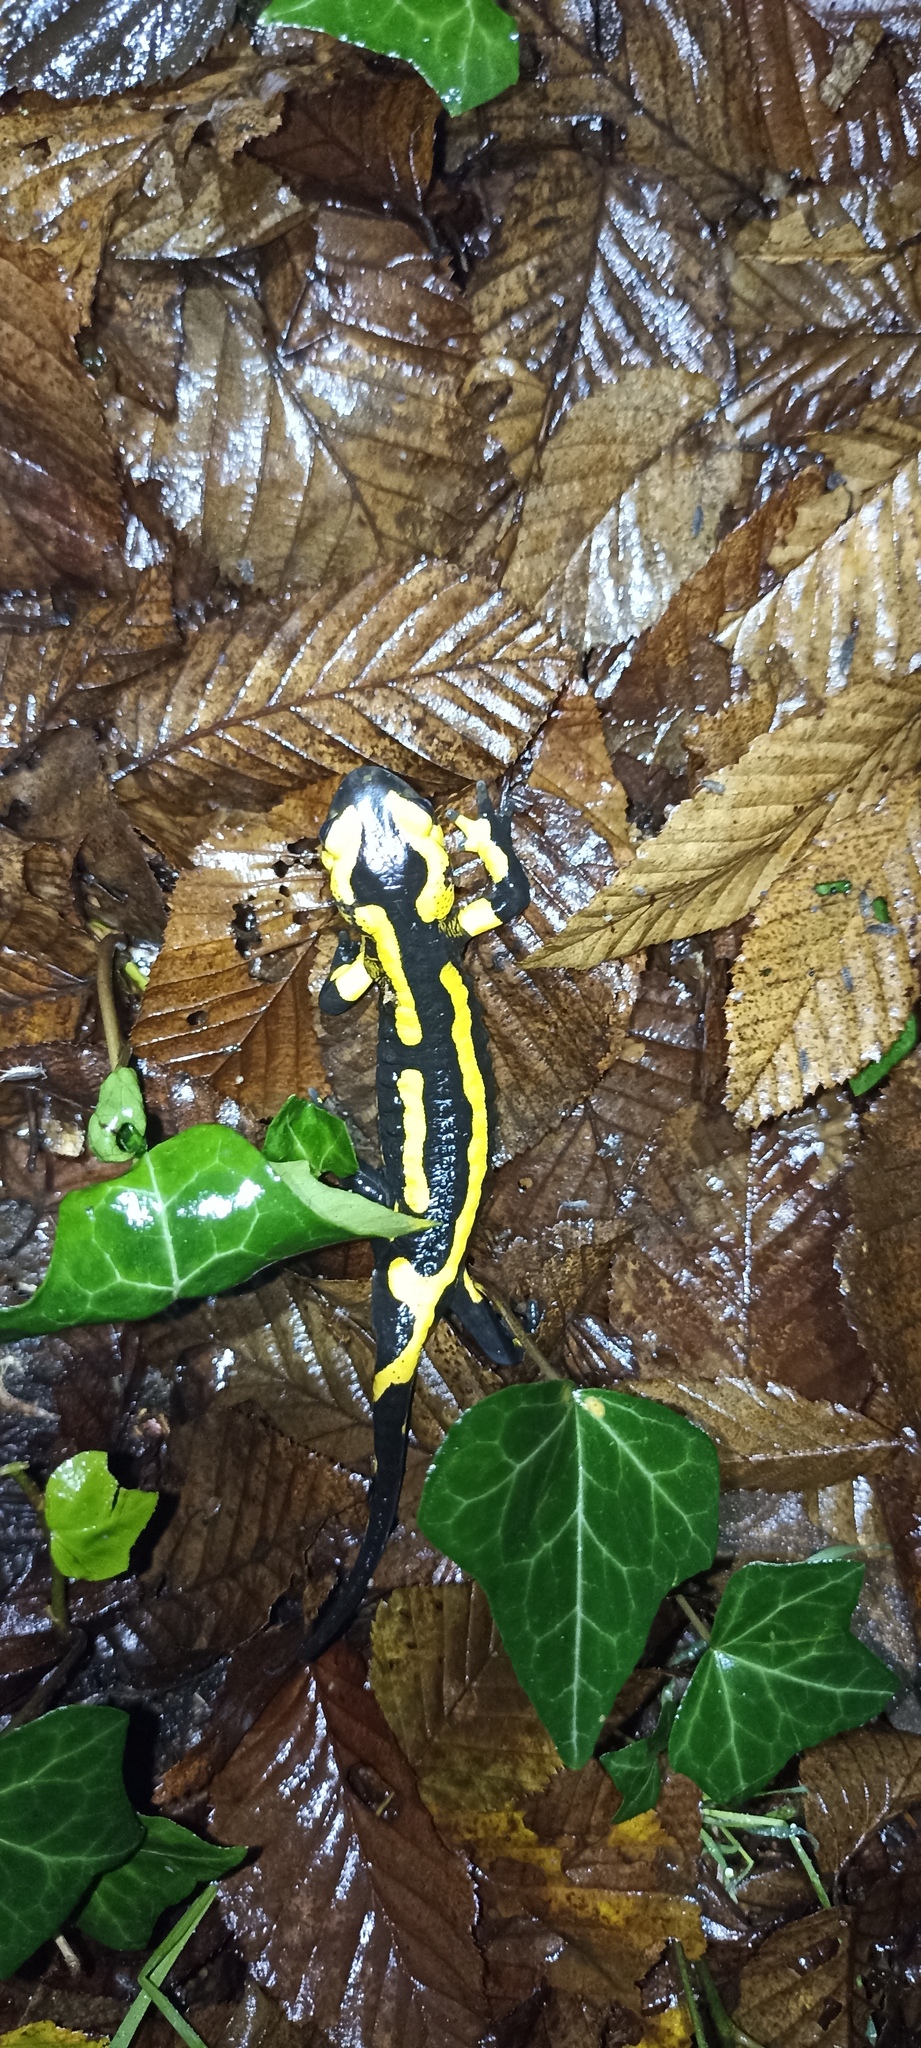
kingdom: Animalia
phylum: Chordata
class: Amphibia
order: Caudata
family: Salamandridae
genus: Salamandra
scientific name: Salamandra salamandra
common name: Fire salamander
